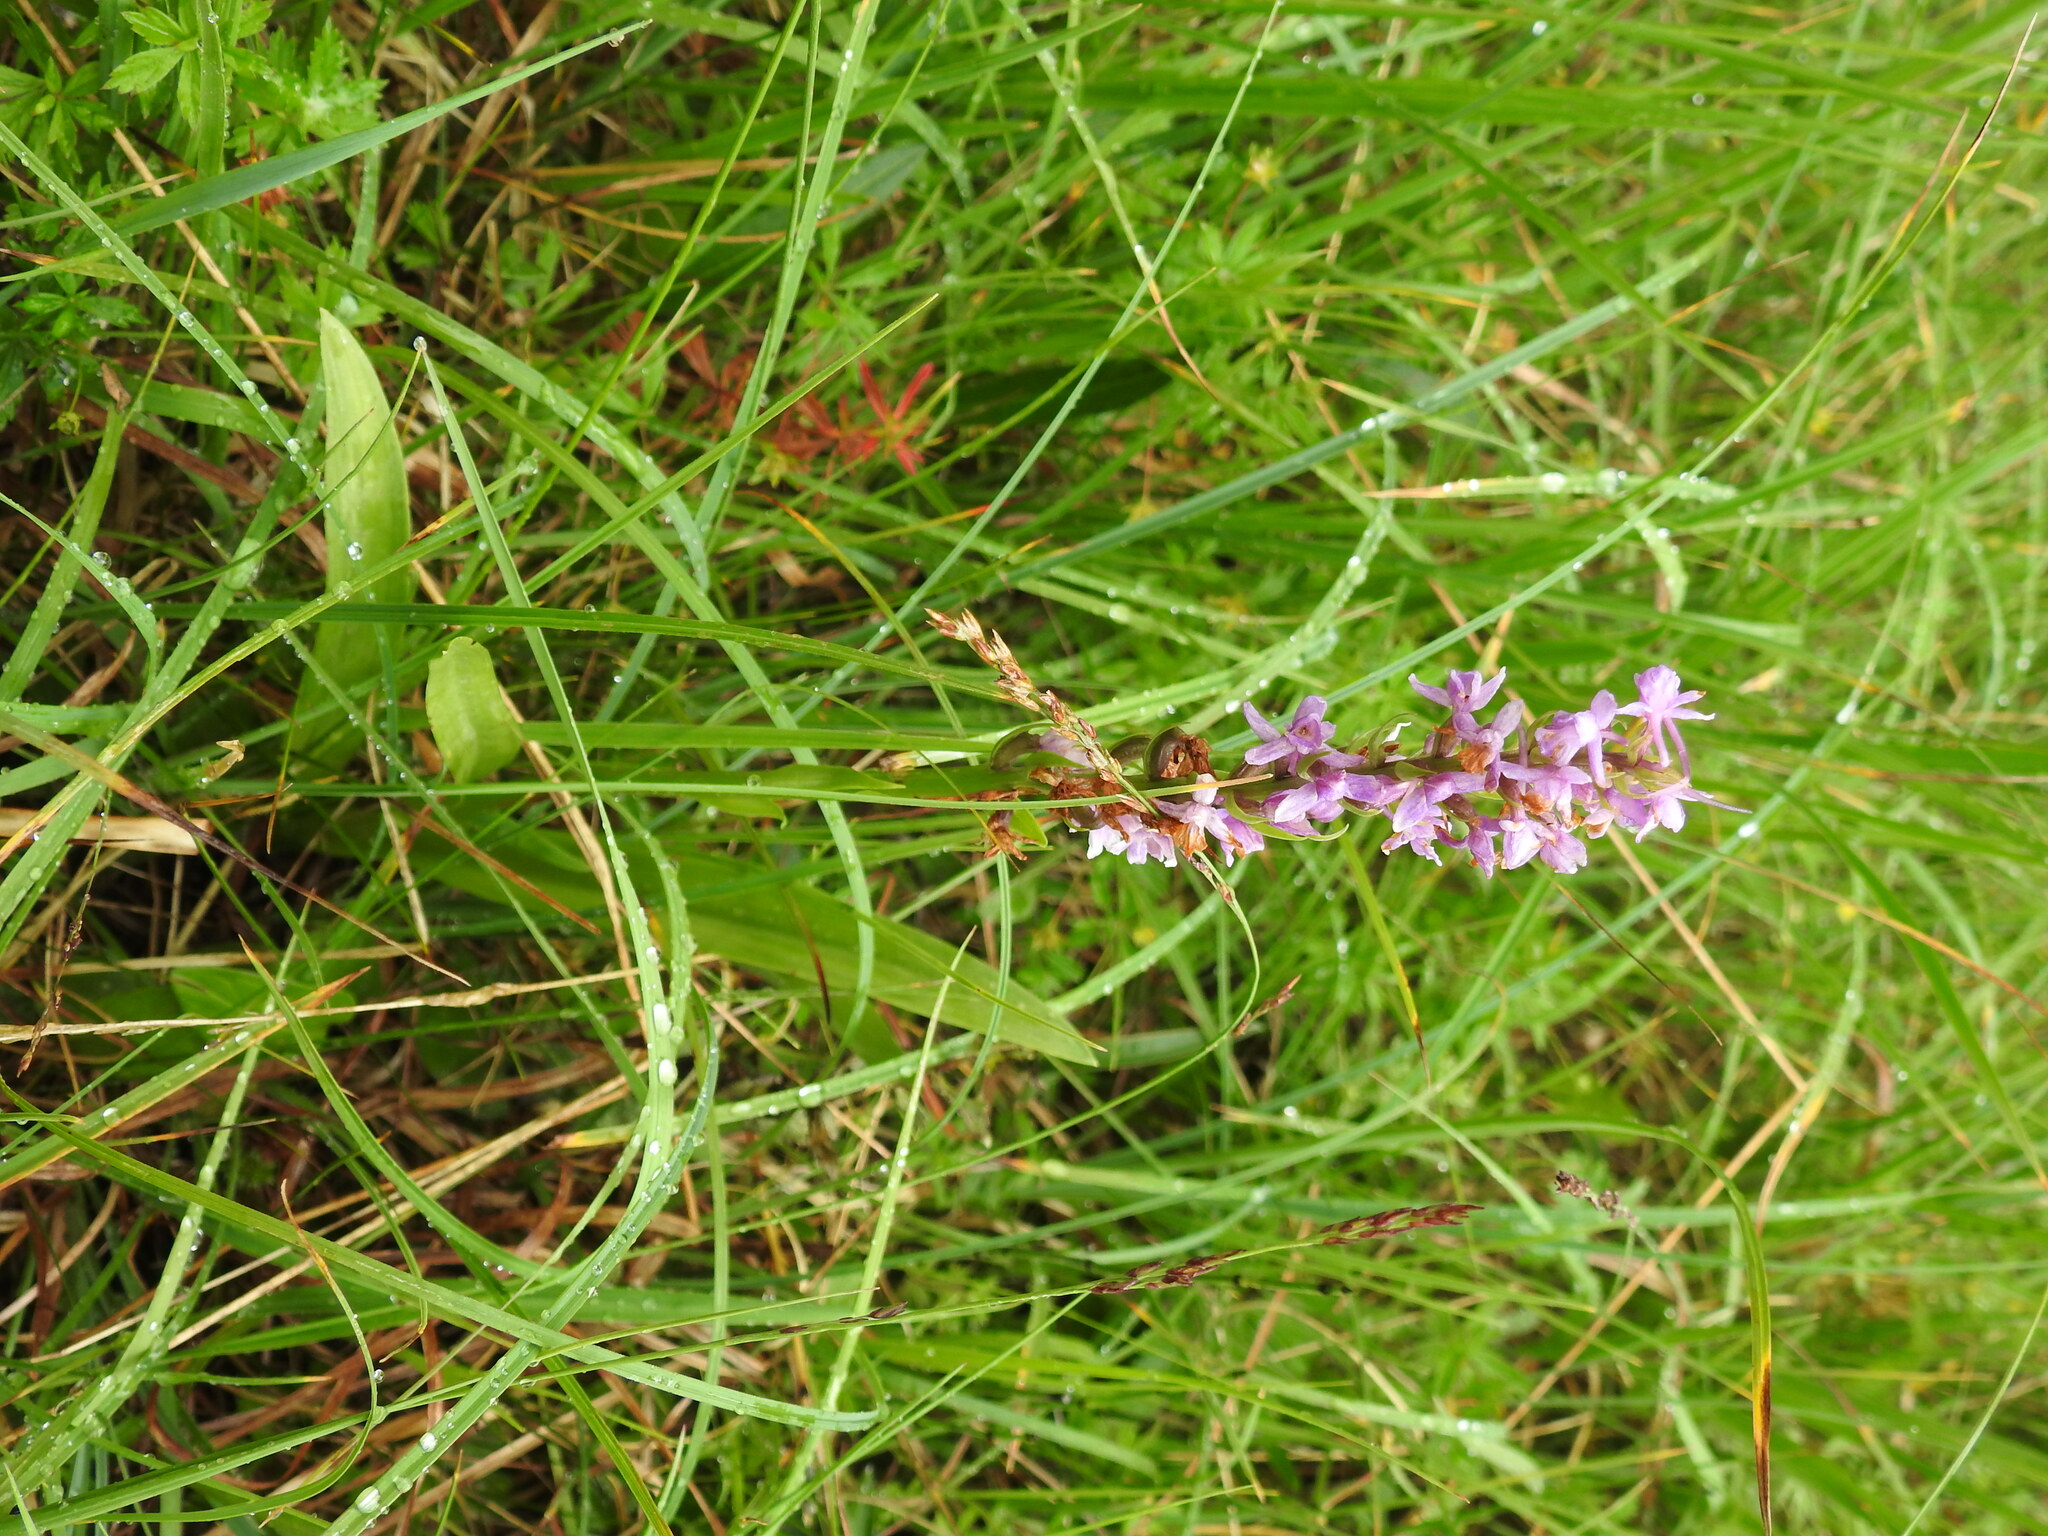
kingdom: Plantae
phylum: Tracheophyta
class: Liliopsida
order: Asparagales
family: Orchidaceae
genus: Gymnadenia
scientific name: Gymnadenia conopsea
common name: Fragrant orchid
